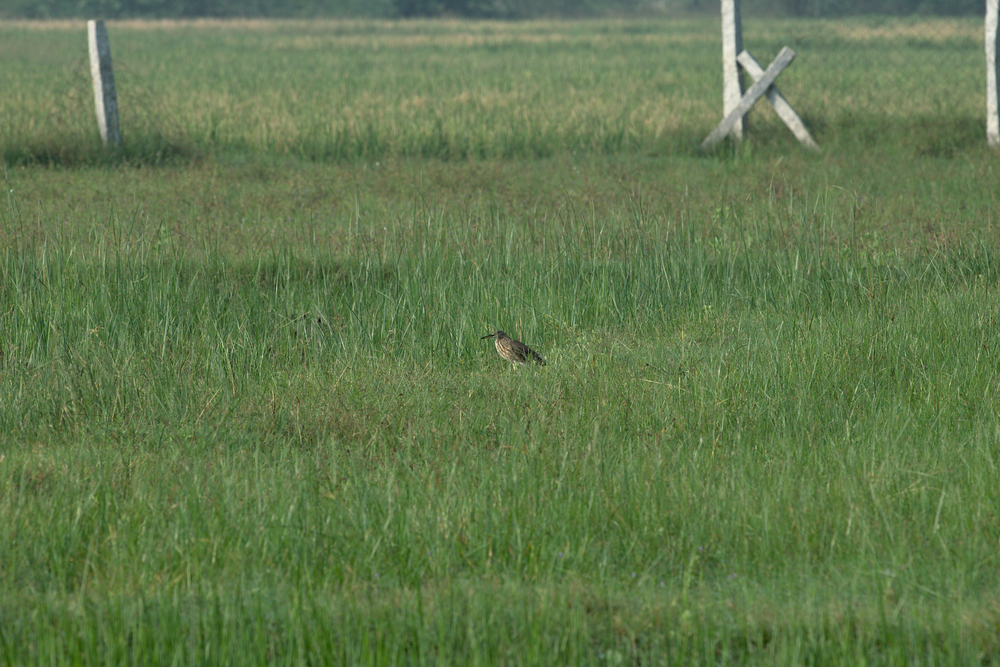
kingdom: Animalia
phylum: Chordata
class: Aves
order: Pelecaniformes
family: Ardeidae
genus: Ardeola
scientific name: Ardeola grayii
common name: Indian pond heron
